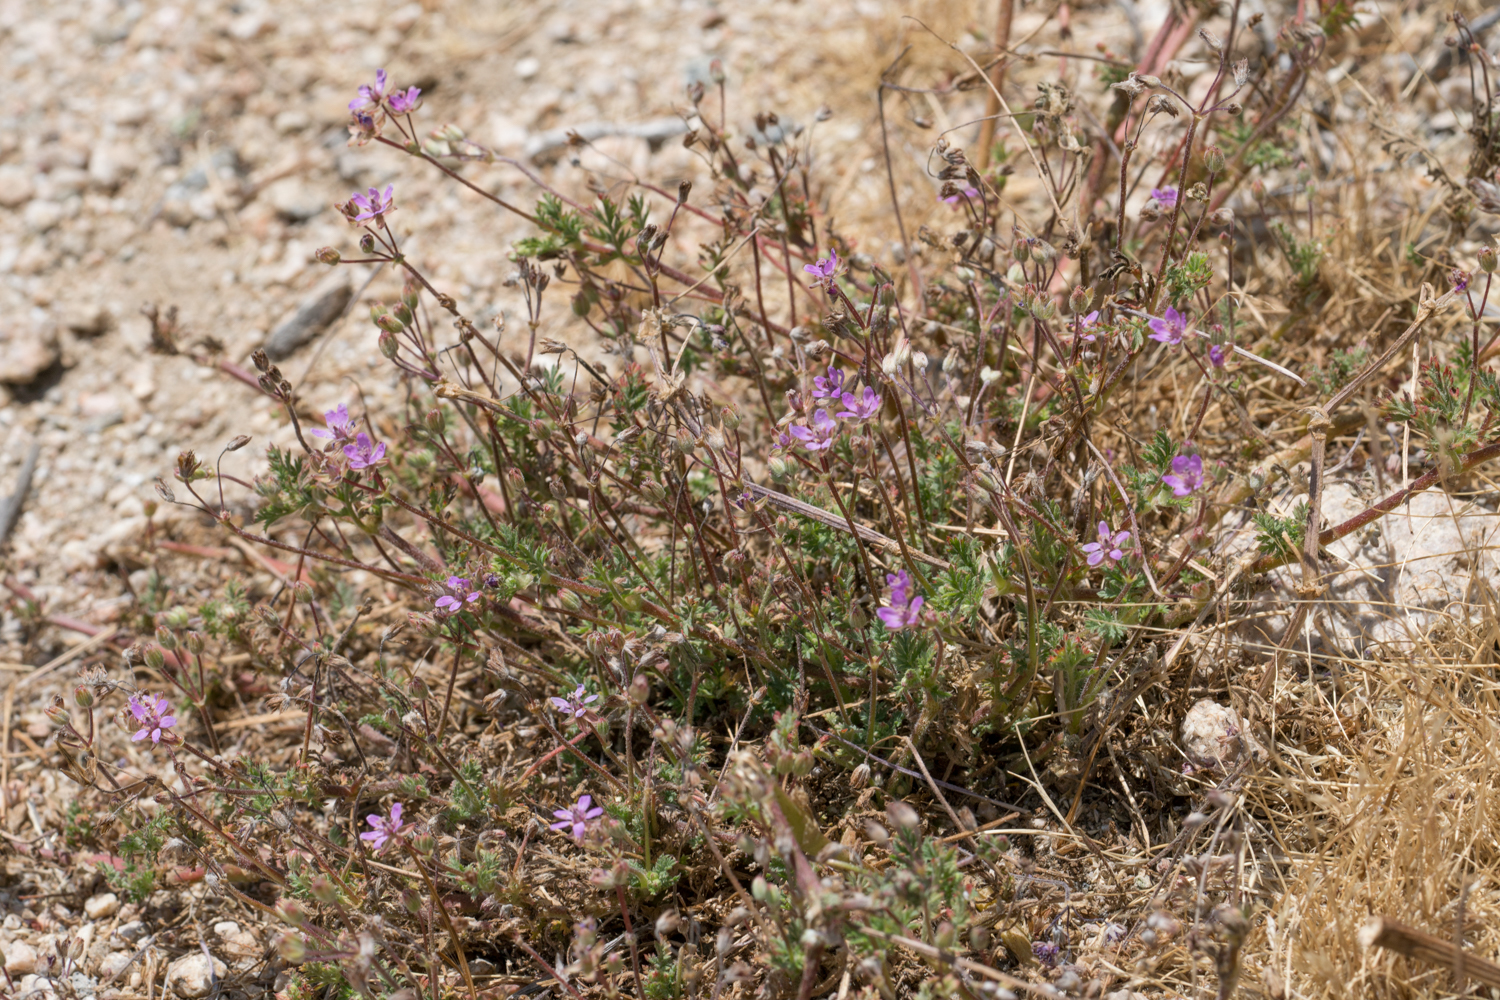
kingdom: Plantae
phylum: Tracheophyta
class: Magnoliopsida
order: Geraniales
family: Geraniaceae
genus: Erodium
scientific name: Erodium cicutarium
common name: Common stork's-bill
